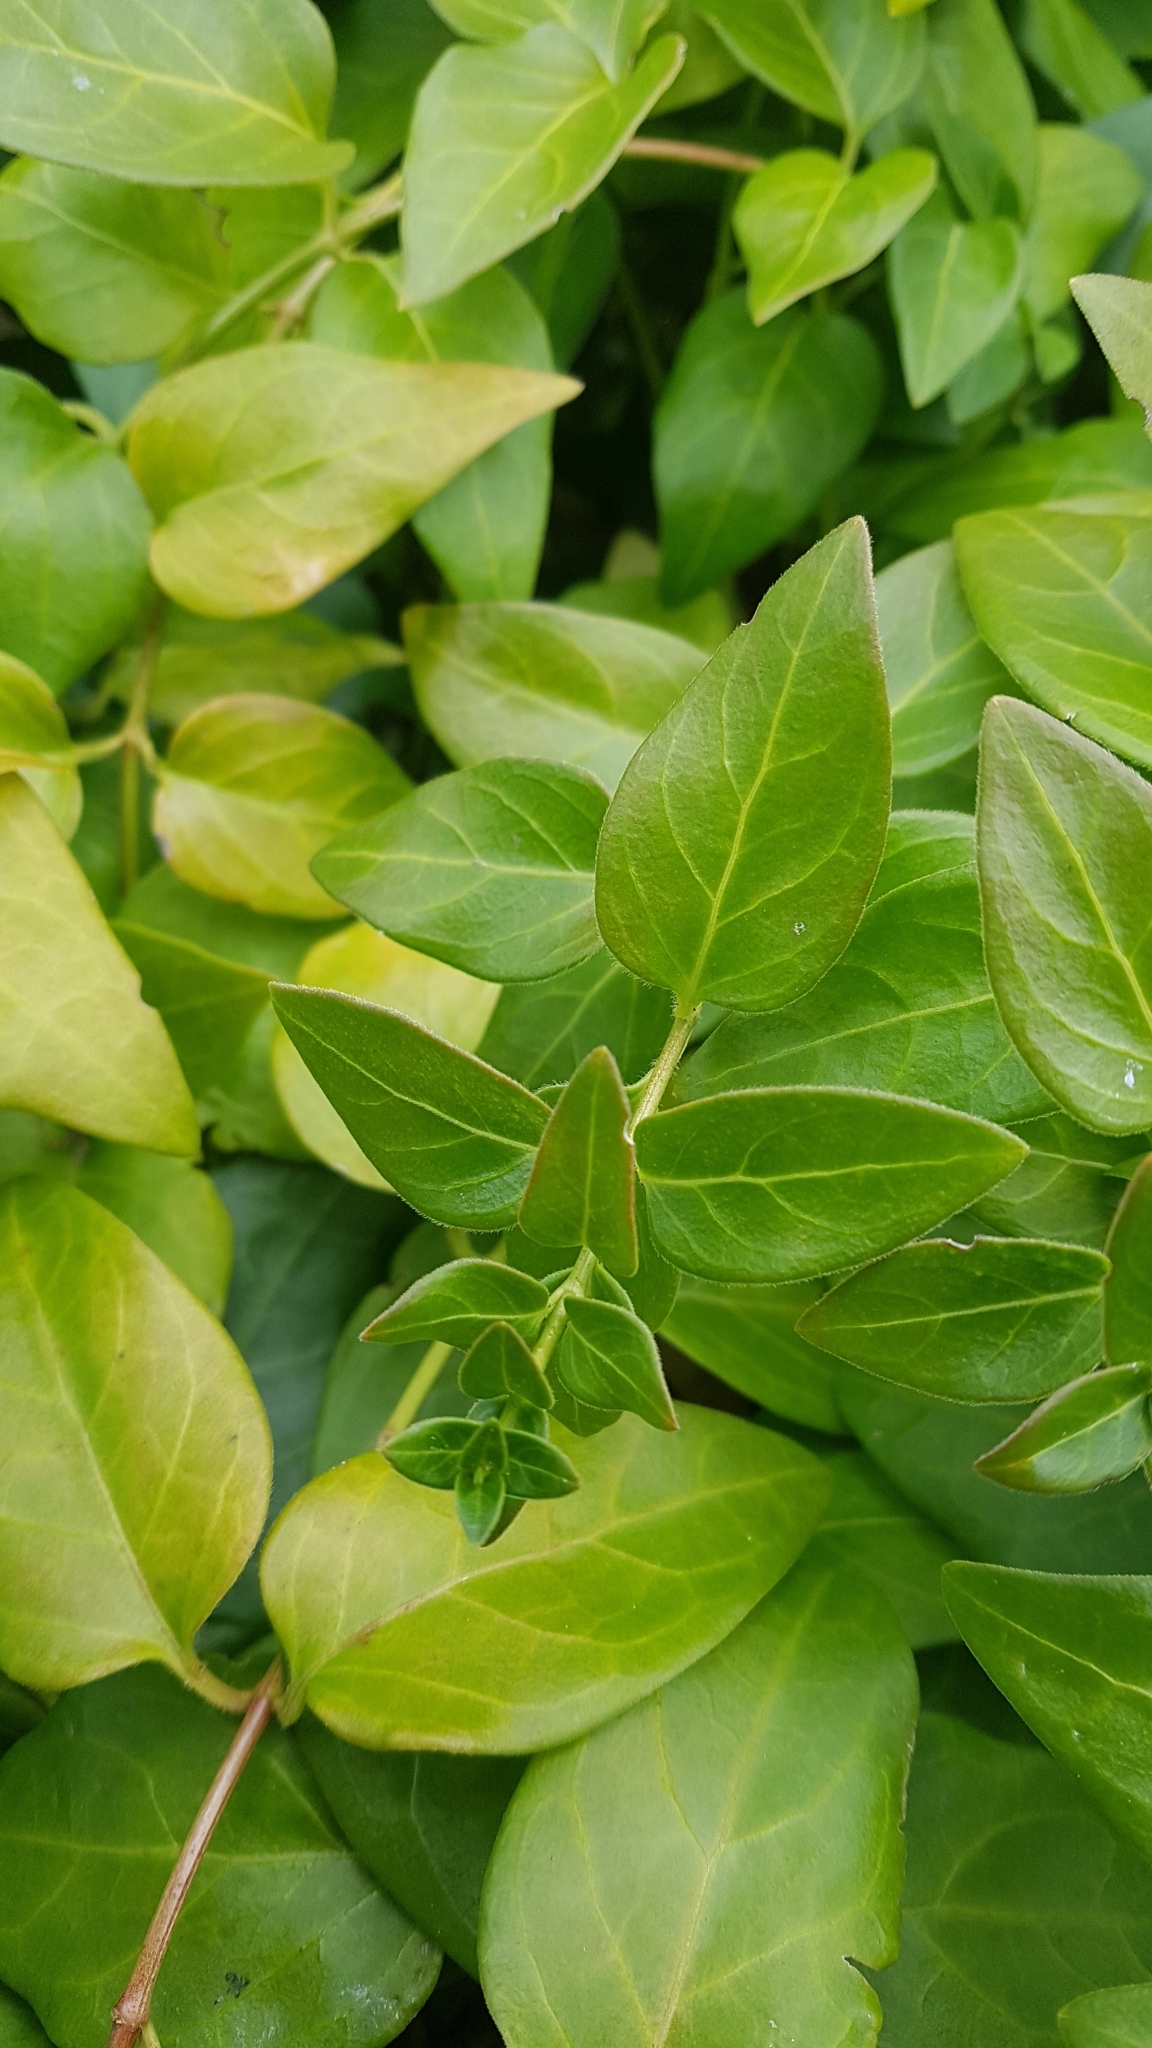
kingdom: Plantae
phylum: Tracheophyta
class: Magnoliopsida
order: Gentianales
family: Apocynaceae
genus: Vinca
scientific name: Vinca major
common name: Greater periwinkle
